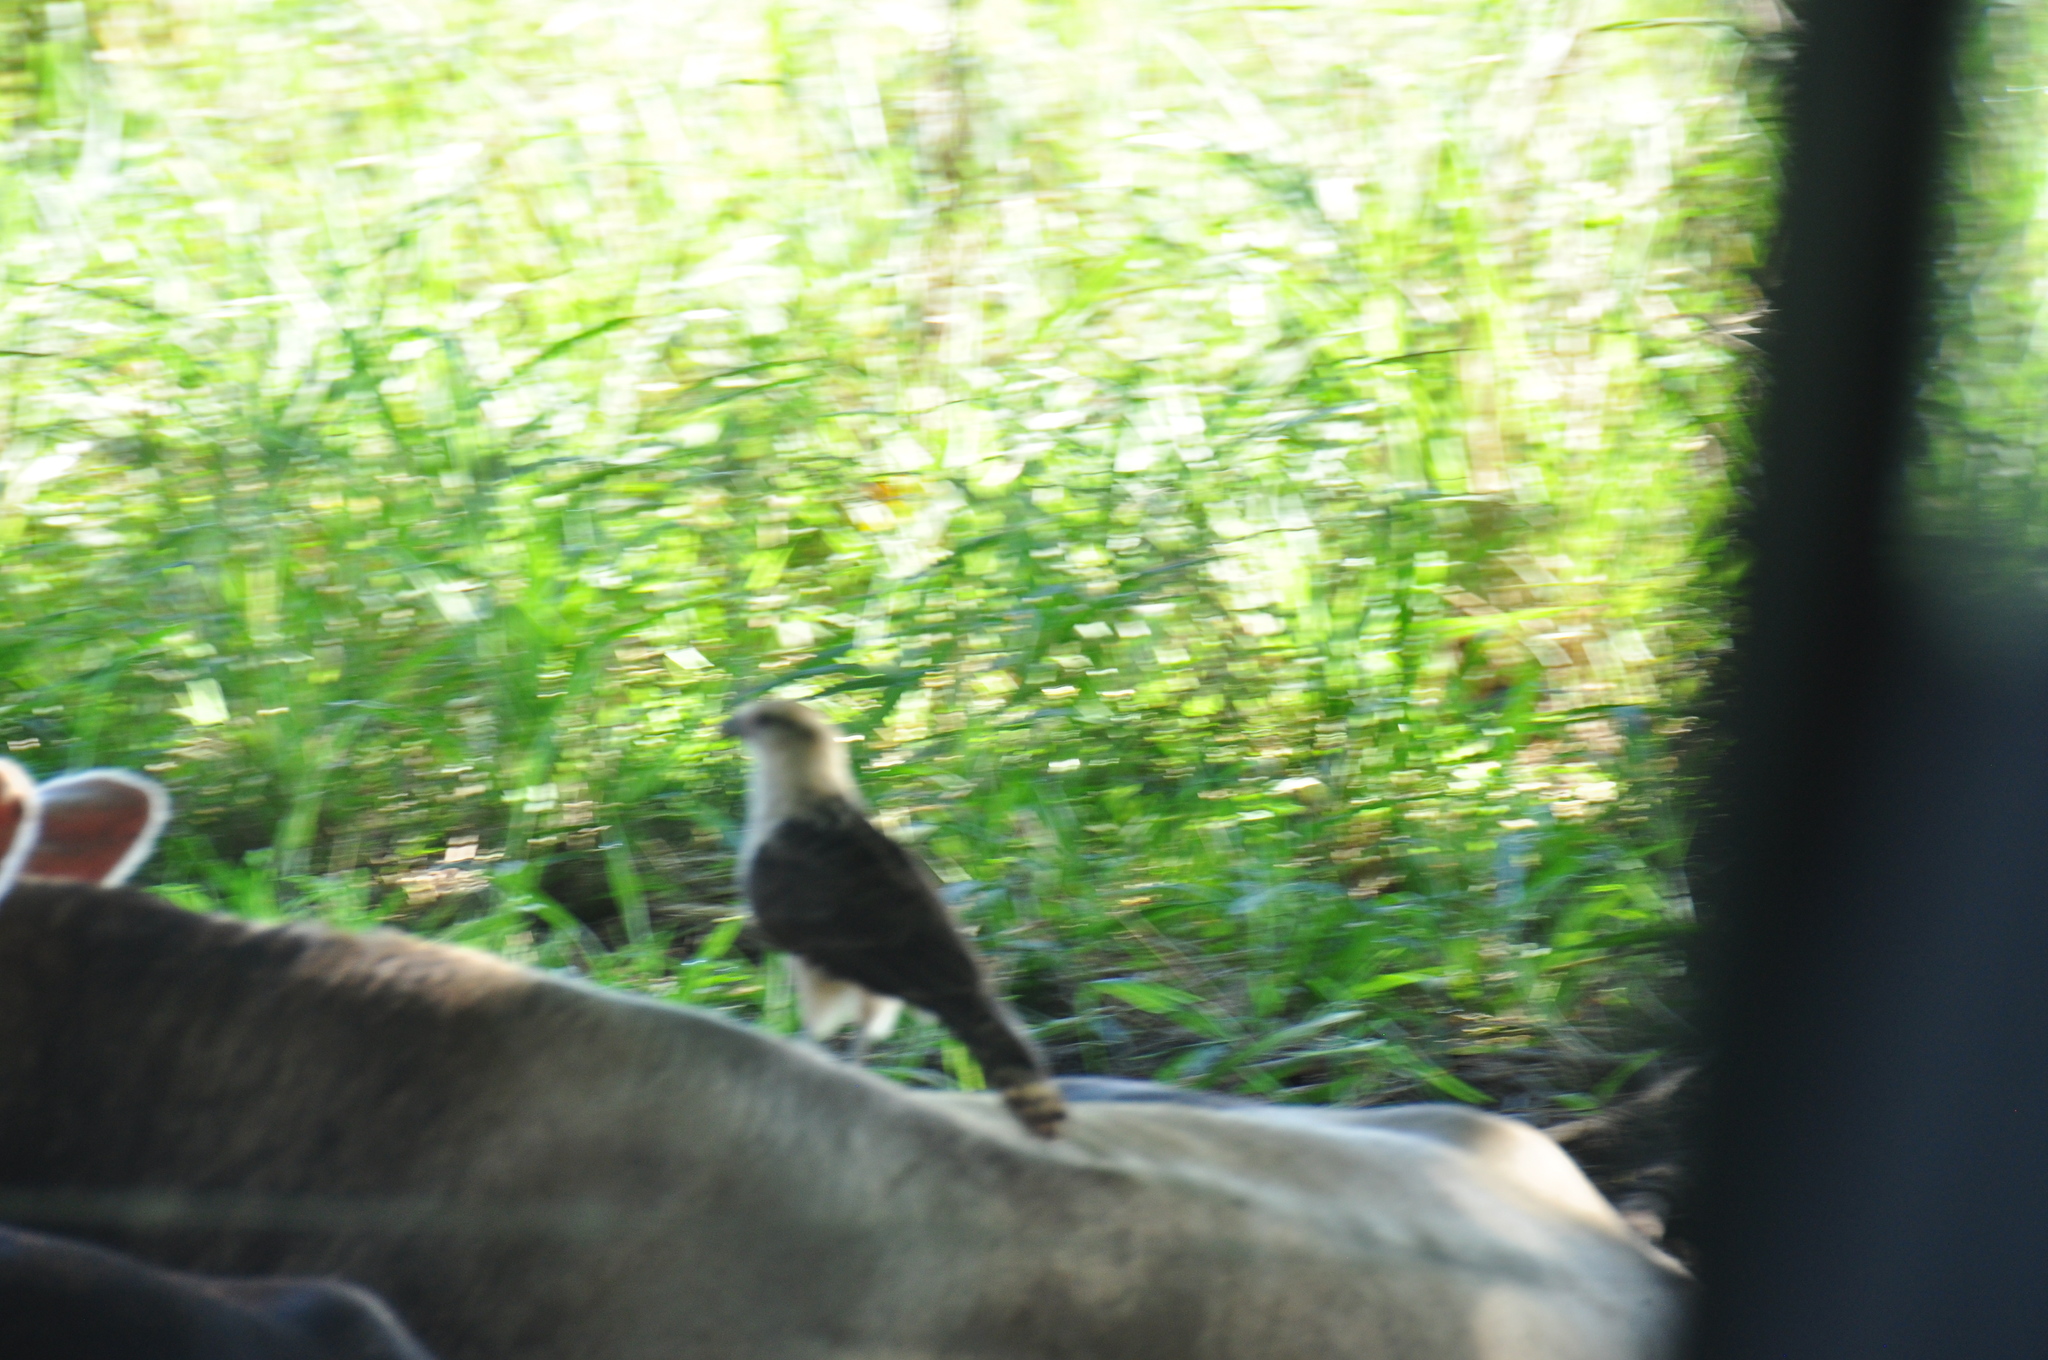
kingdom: Animalia
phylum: Chordata
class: Aves
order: Falconiformes
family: Falconidae
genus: Daptrius
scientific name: Daptrius
